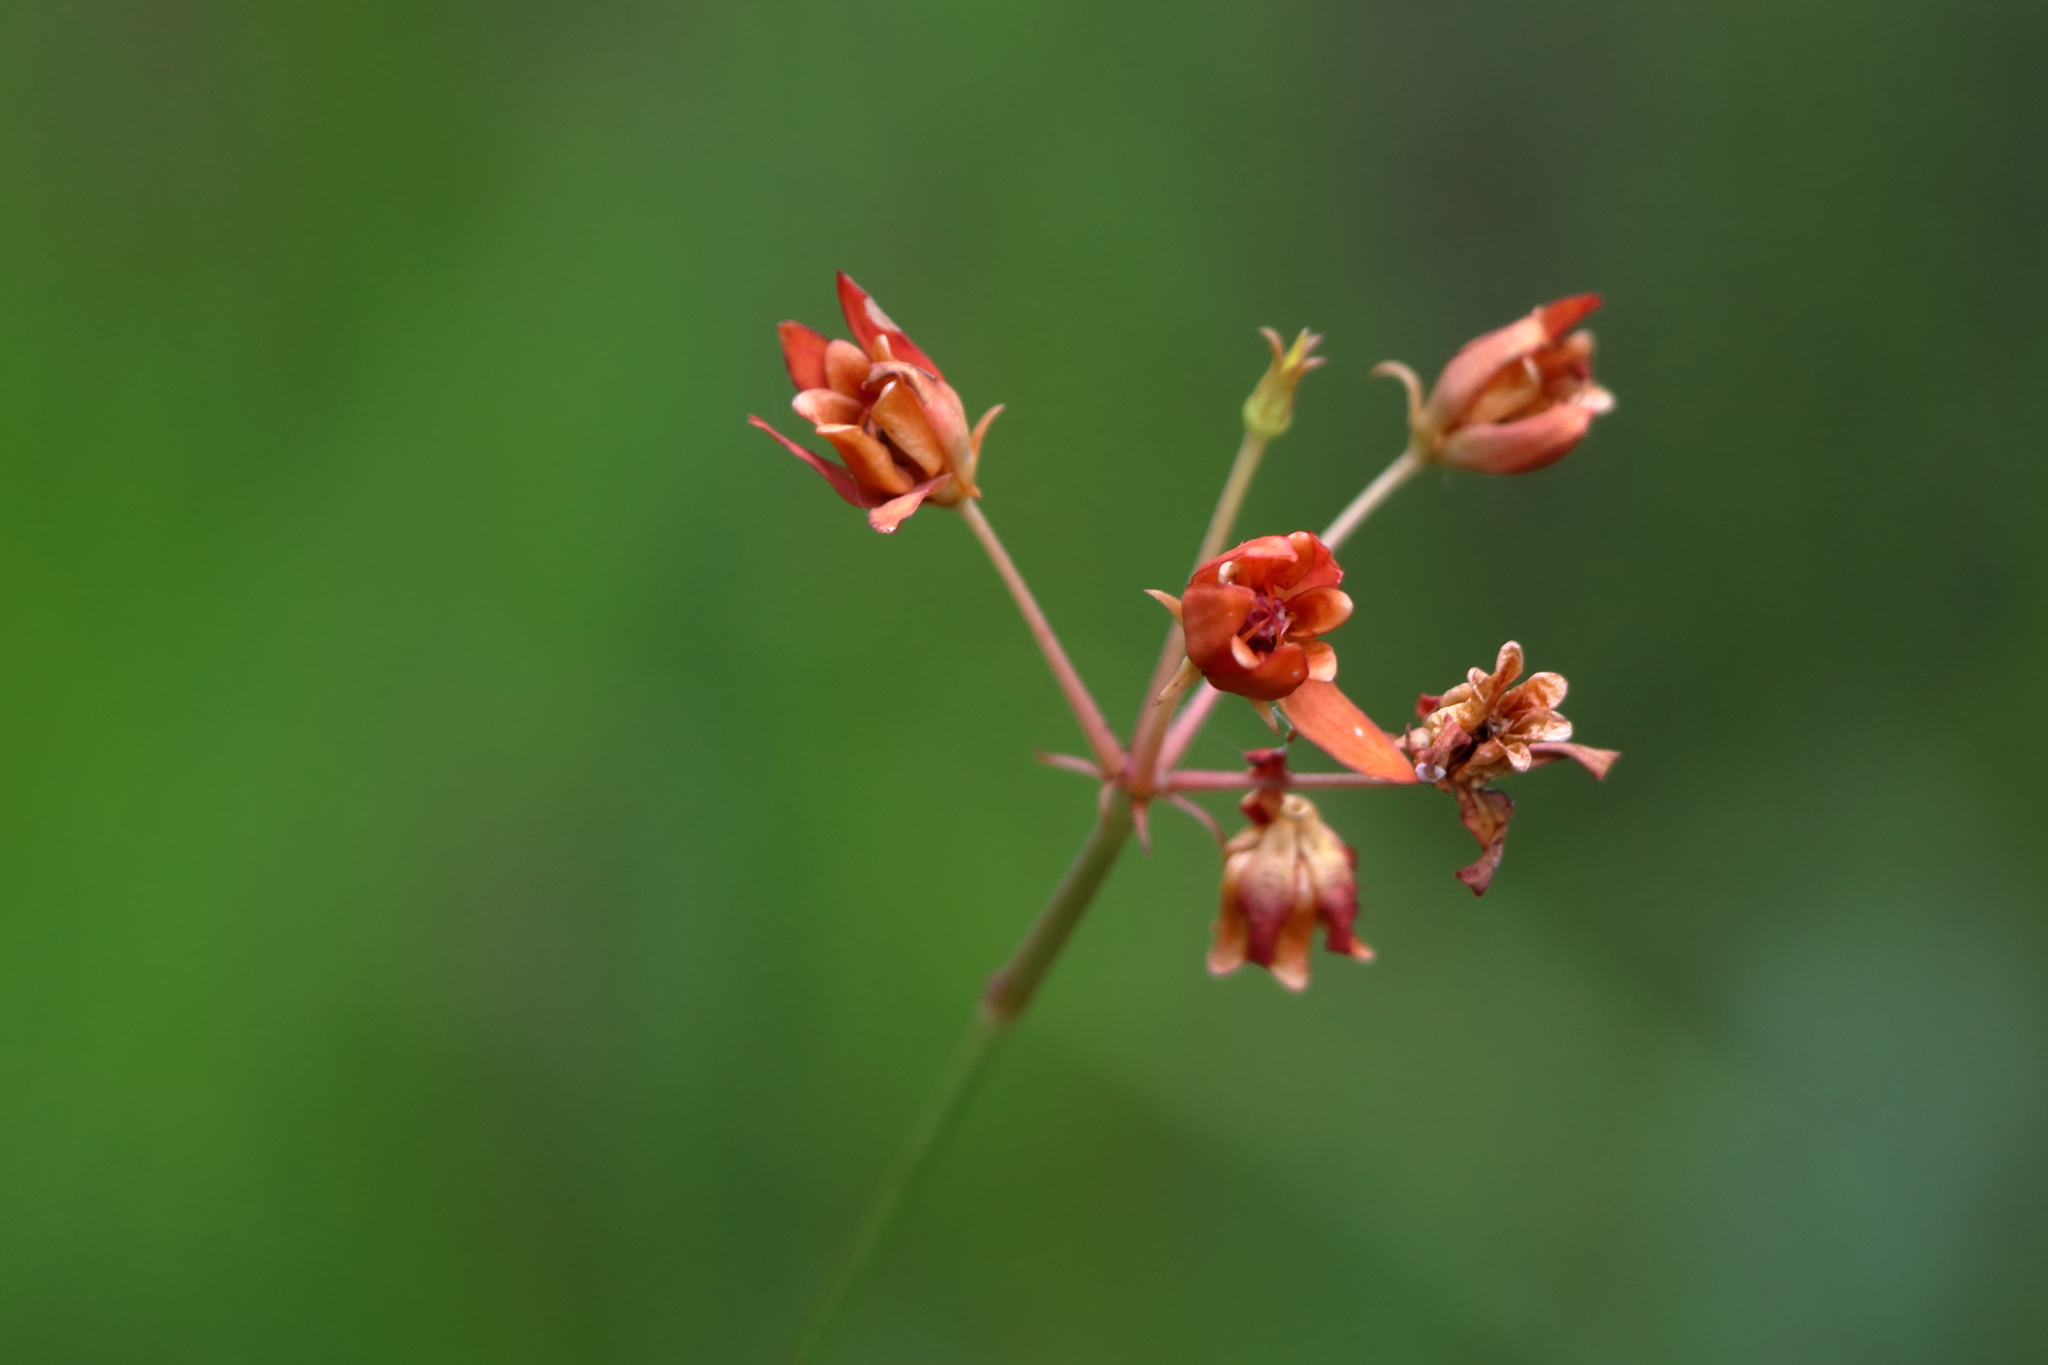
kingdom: Plantae
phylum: Tracheophyta
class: Magnoliopsida
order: Gentianales
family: Apocynaceae
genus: Asclepias
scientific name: Asclepias lanceolata
